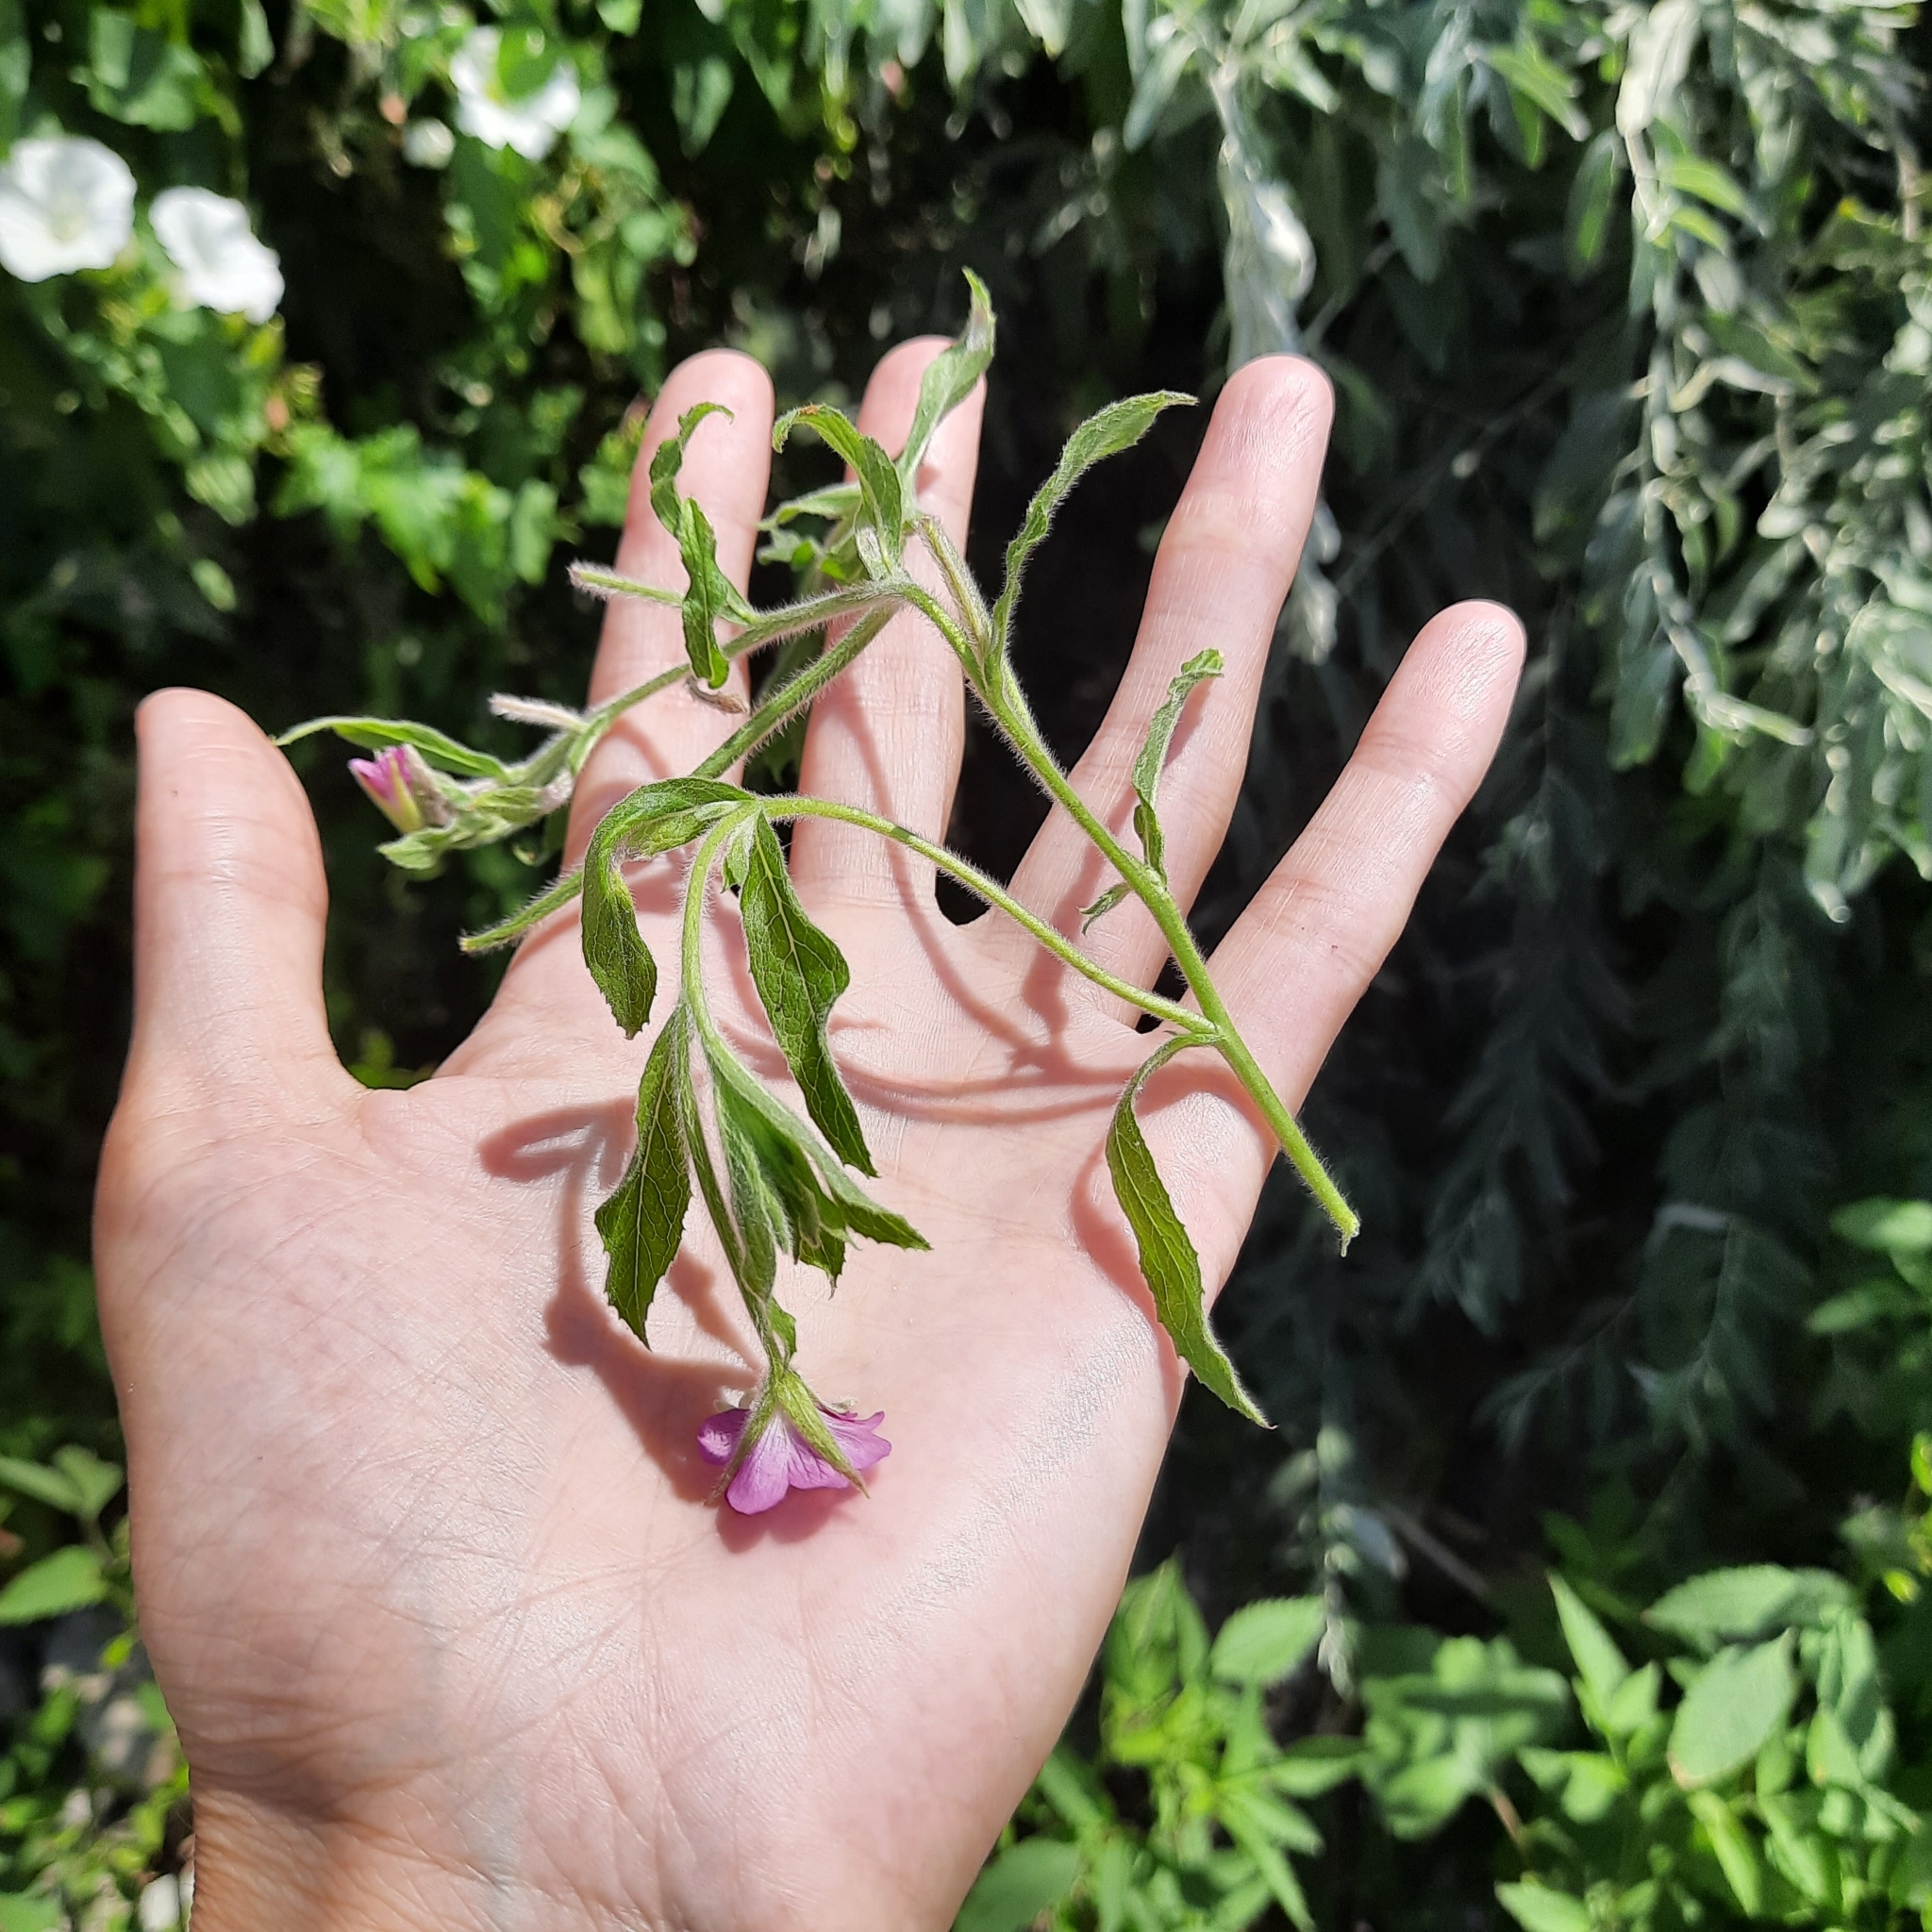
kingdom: Plantae
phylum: Tracheophyta
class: Magnoliopsida
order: Myrtales
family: Onagraceae
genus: Epilobium
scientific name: Epilobium hirsutum
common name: Great willowherb
